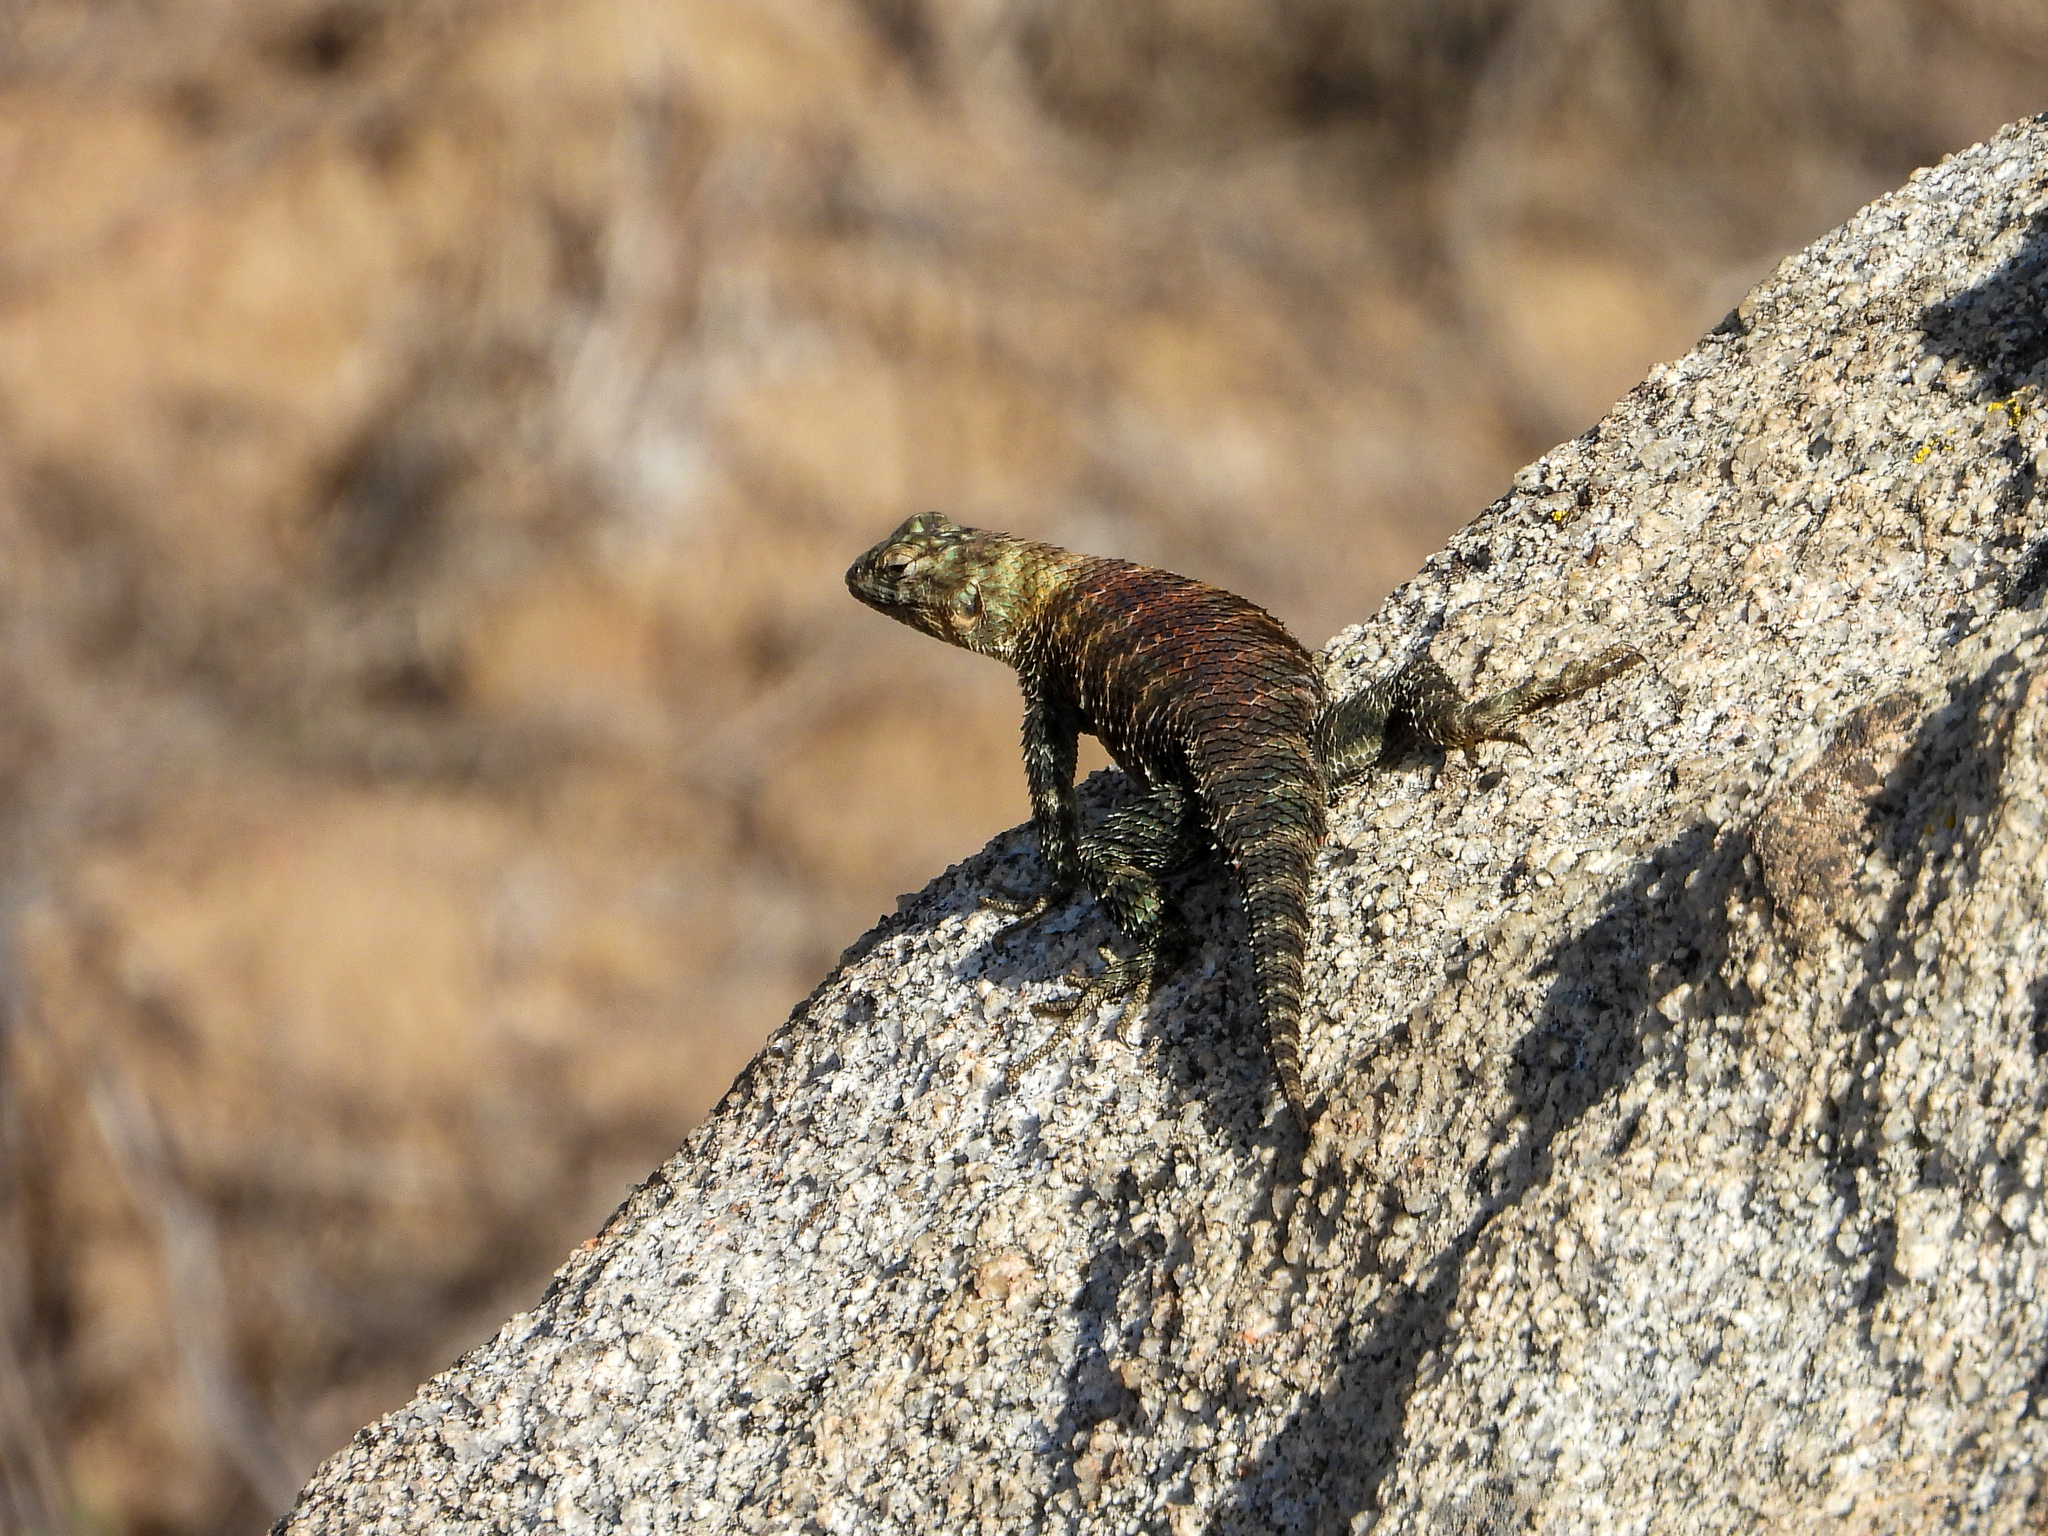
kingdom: Animalia
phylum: Chordata
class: Squamata
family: Phrynosomatidae
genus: Sceloporus
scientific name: Sceloporus orcutti
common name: Granite spiny lizard
